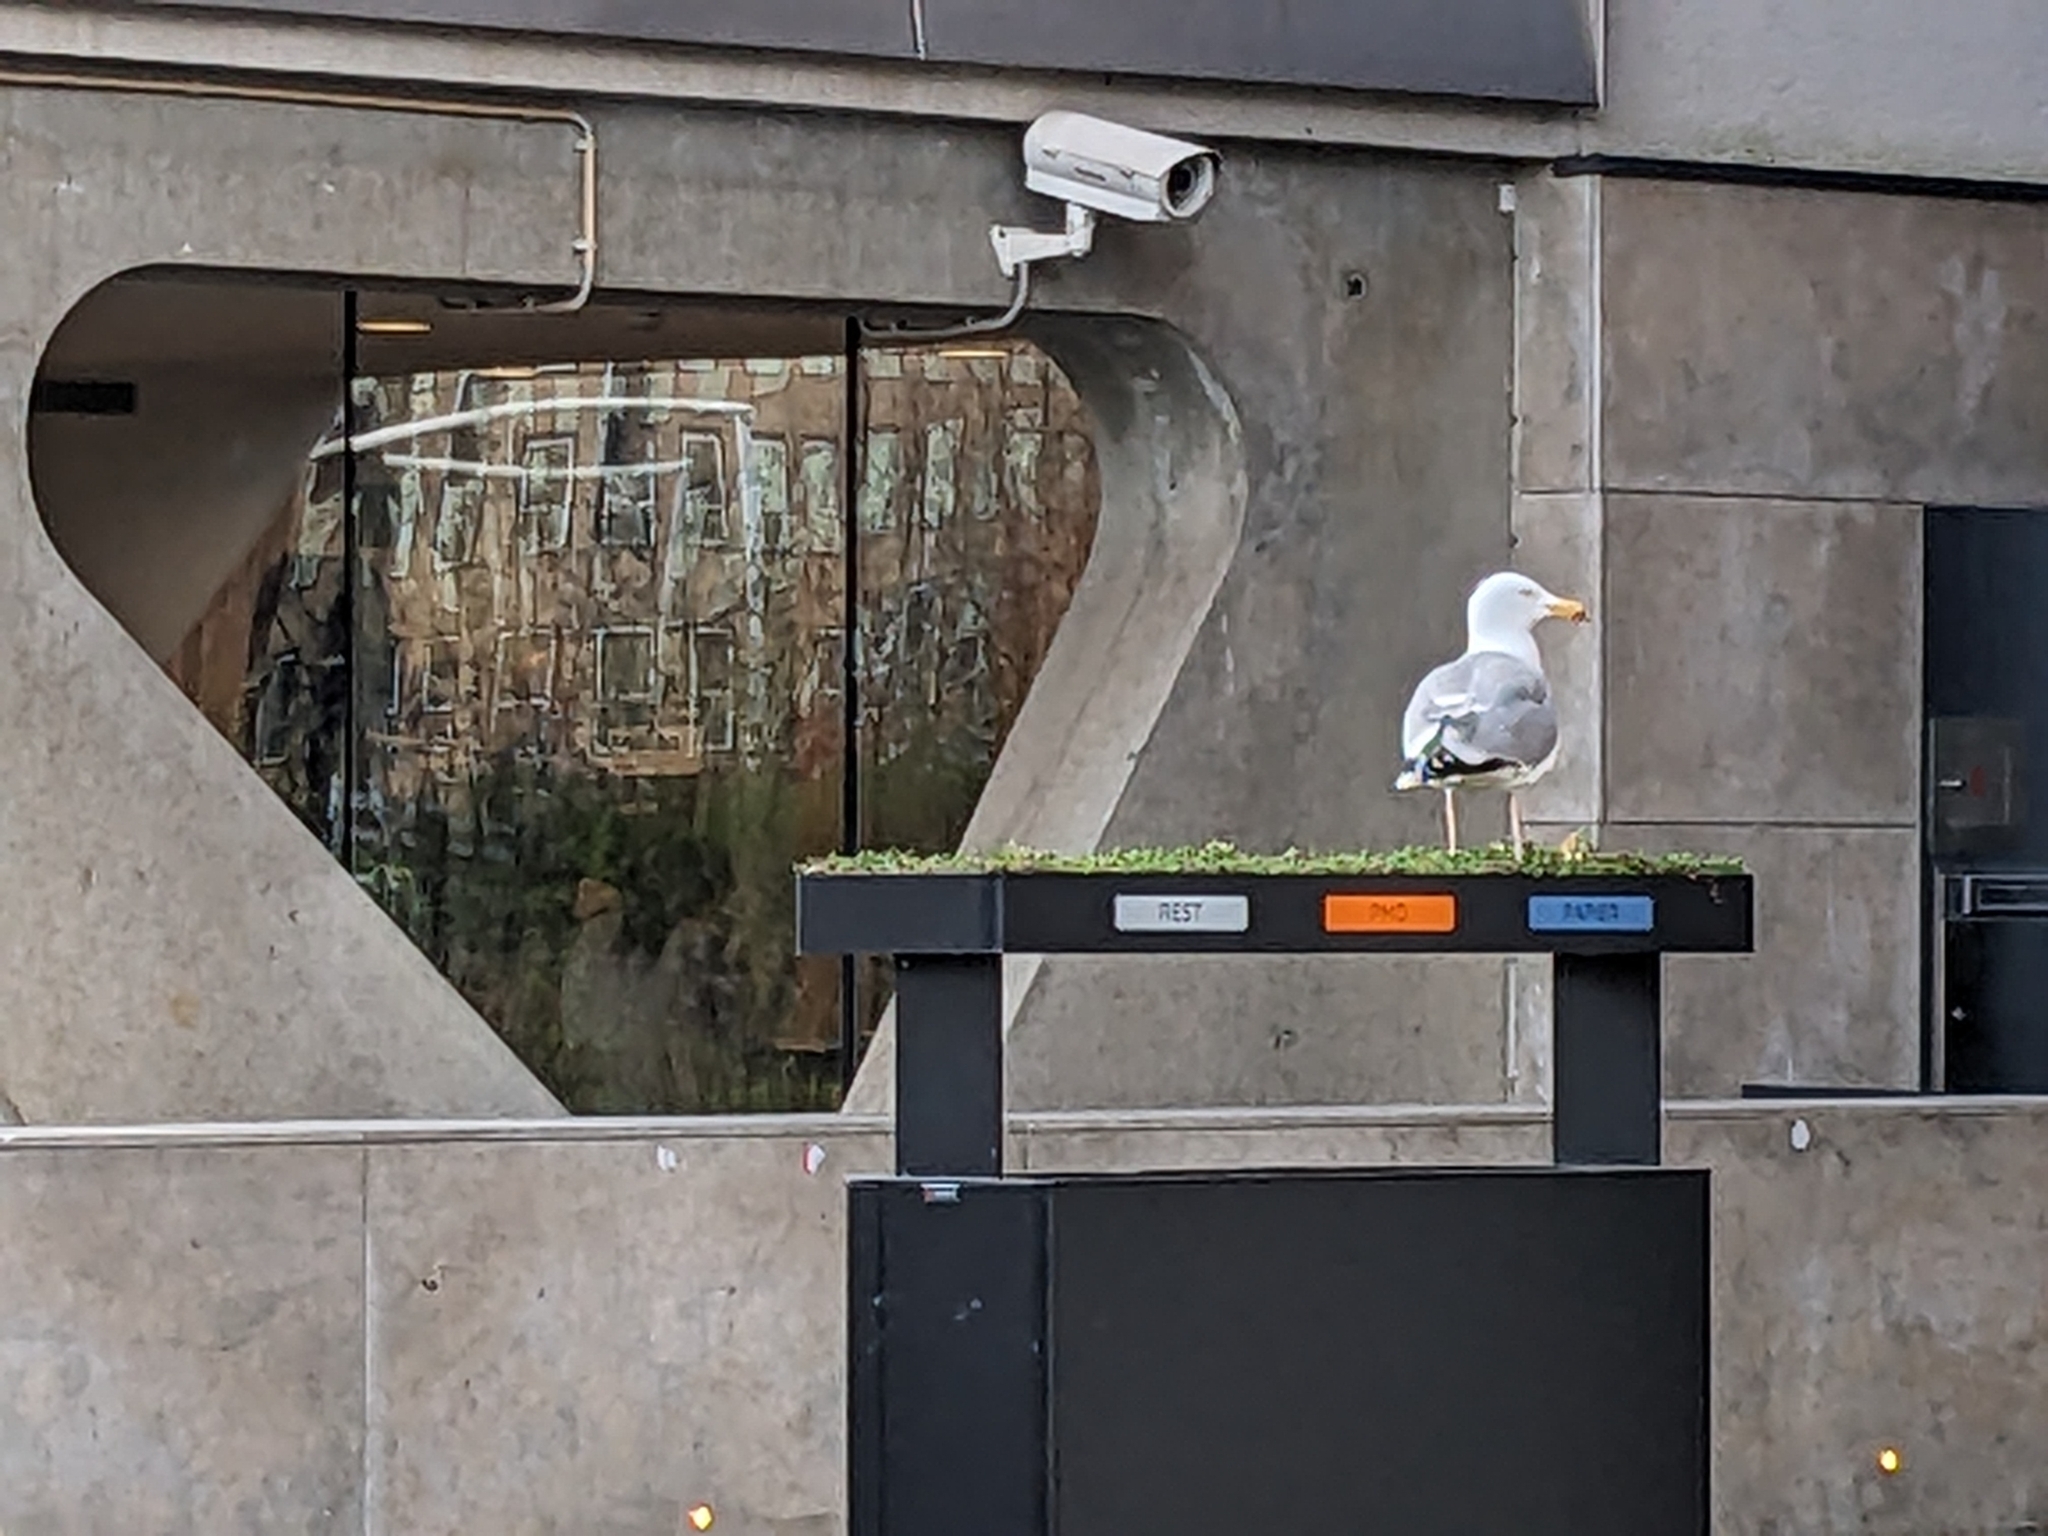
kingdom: Animalia
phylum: Chordata
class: Aves
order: Charadriiformes
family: Laridae
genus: Larus
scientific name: Larus argentatus
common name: Herring gull
